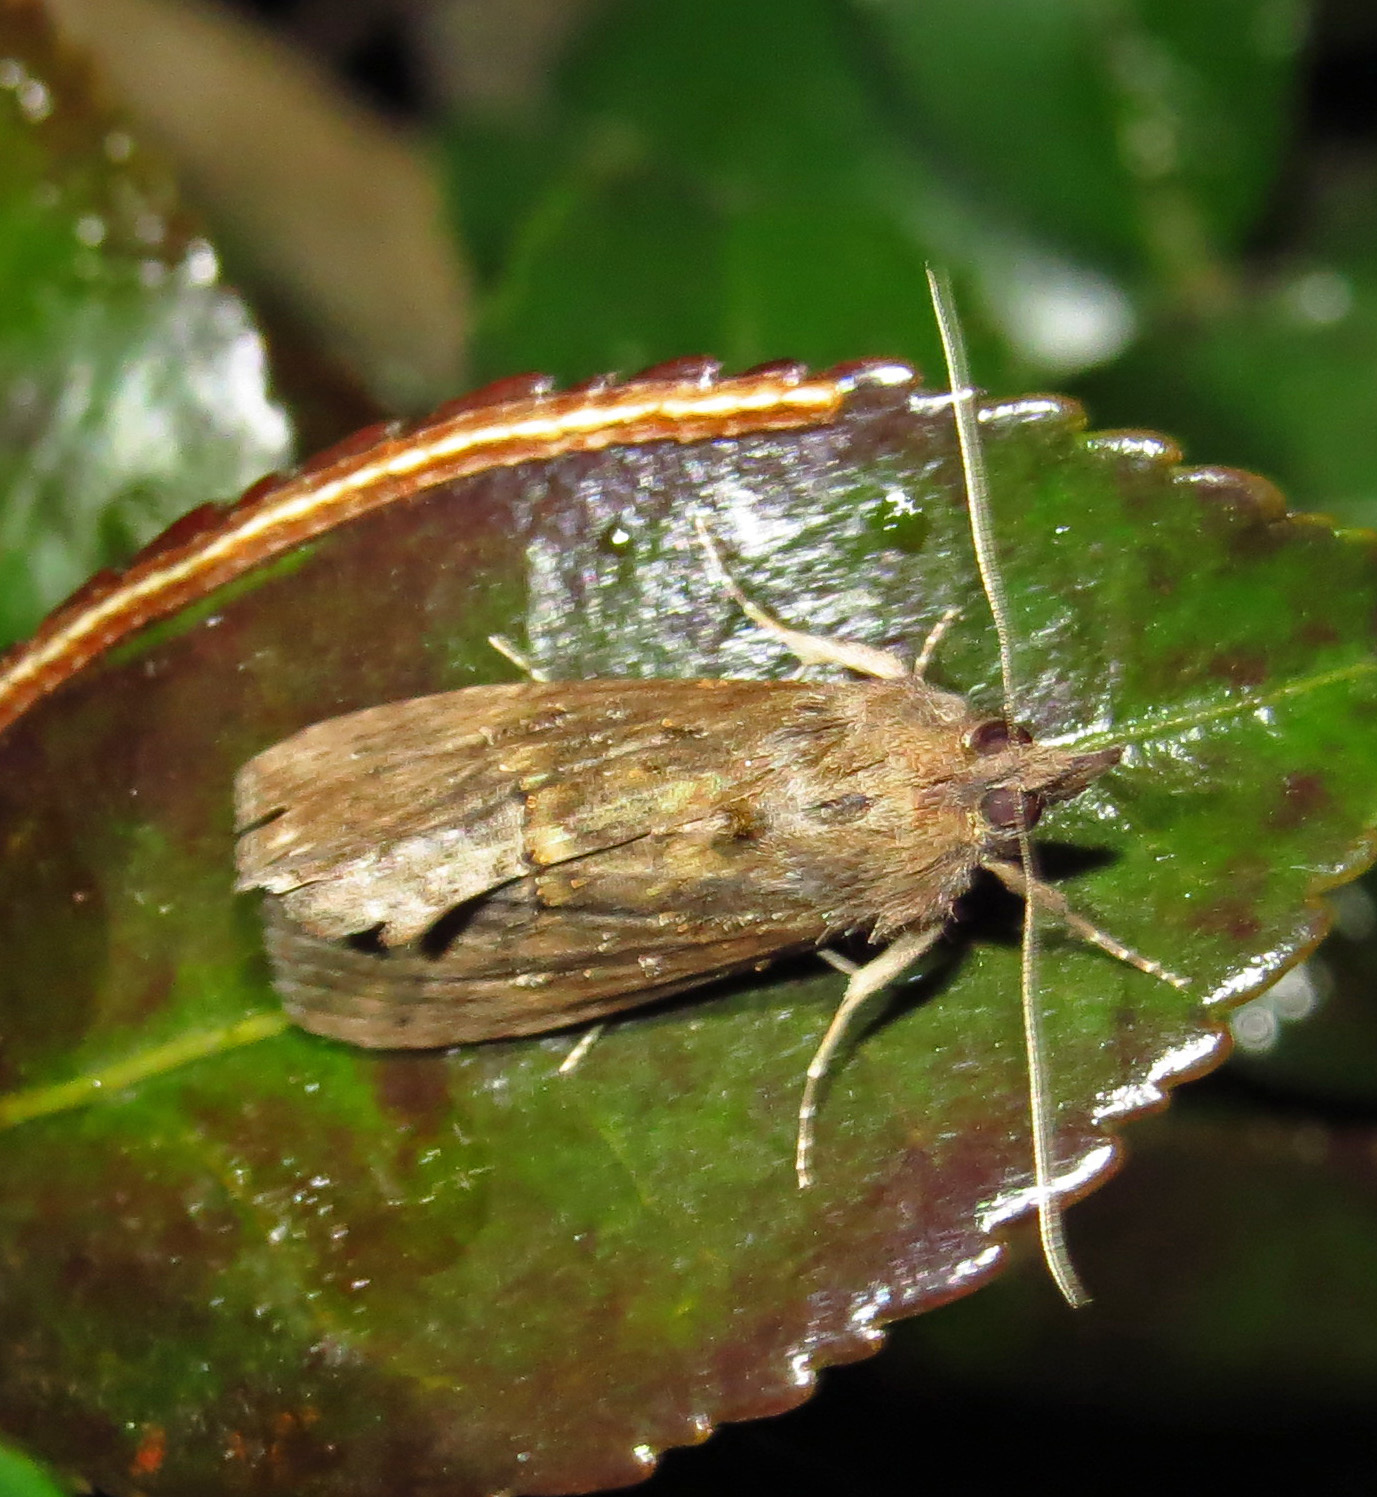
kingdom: Animalia
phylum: Arthropoda
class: Insecta
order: Lepidoptera
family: Erebidae
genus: Hypena
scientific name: Hypena scabra
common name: Green cloverworm
